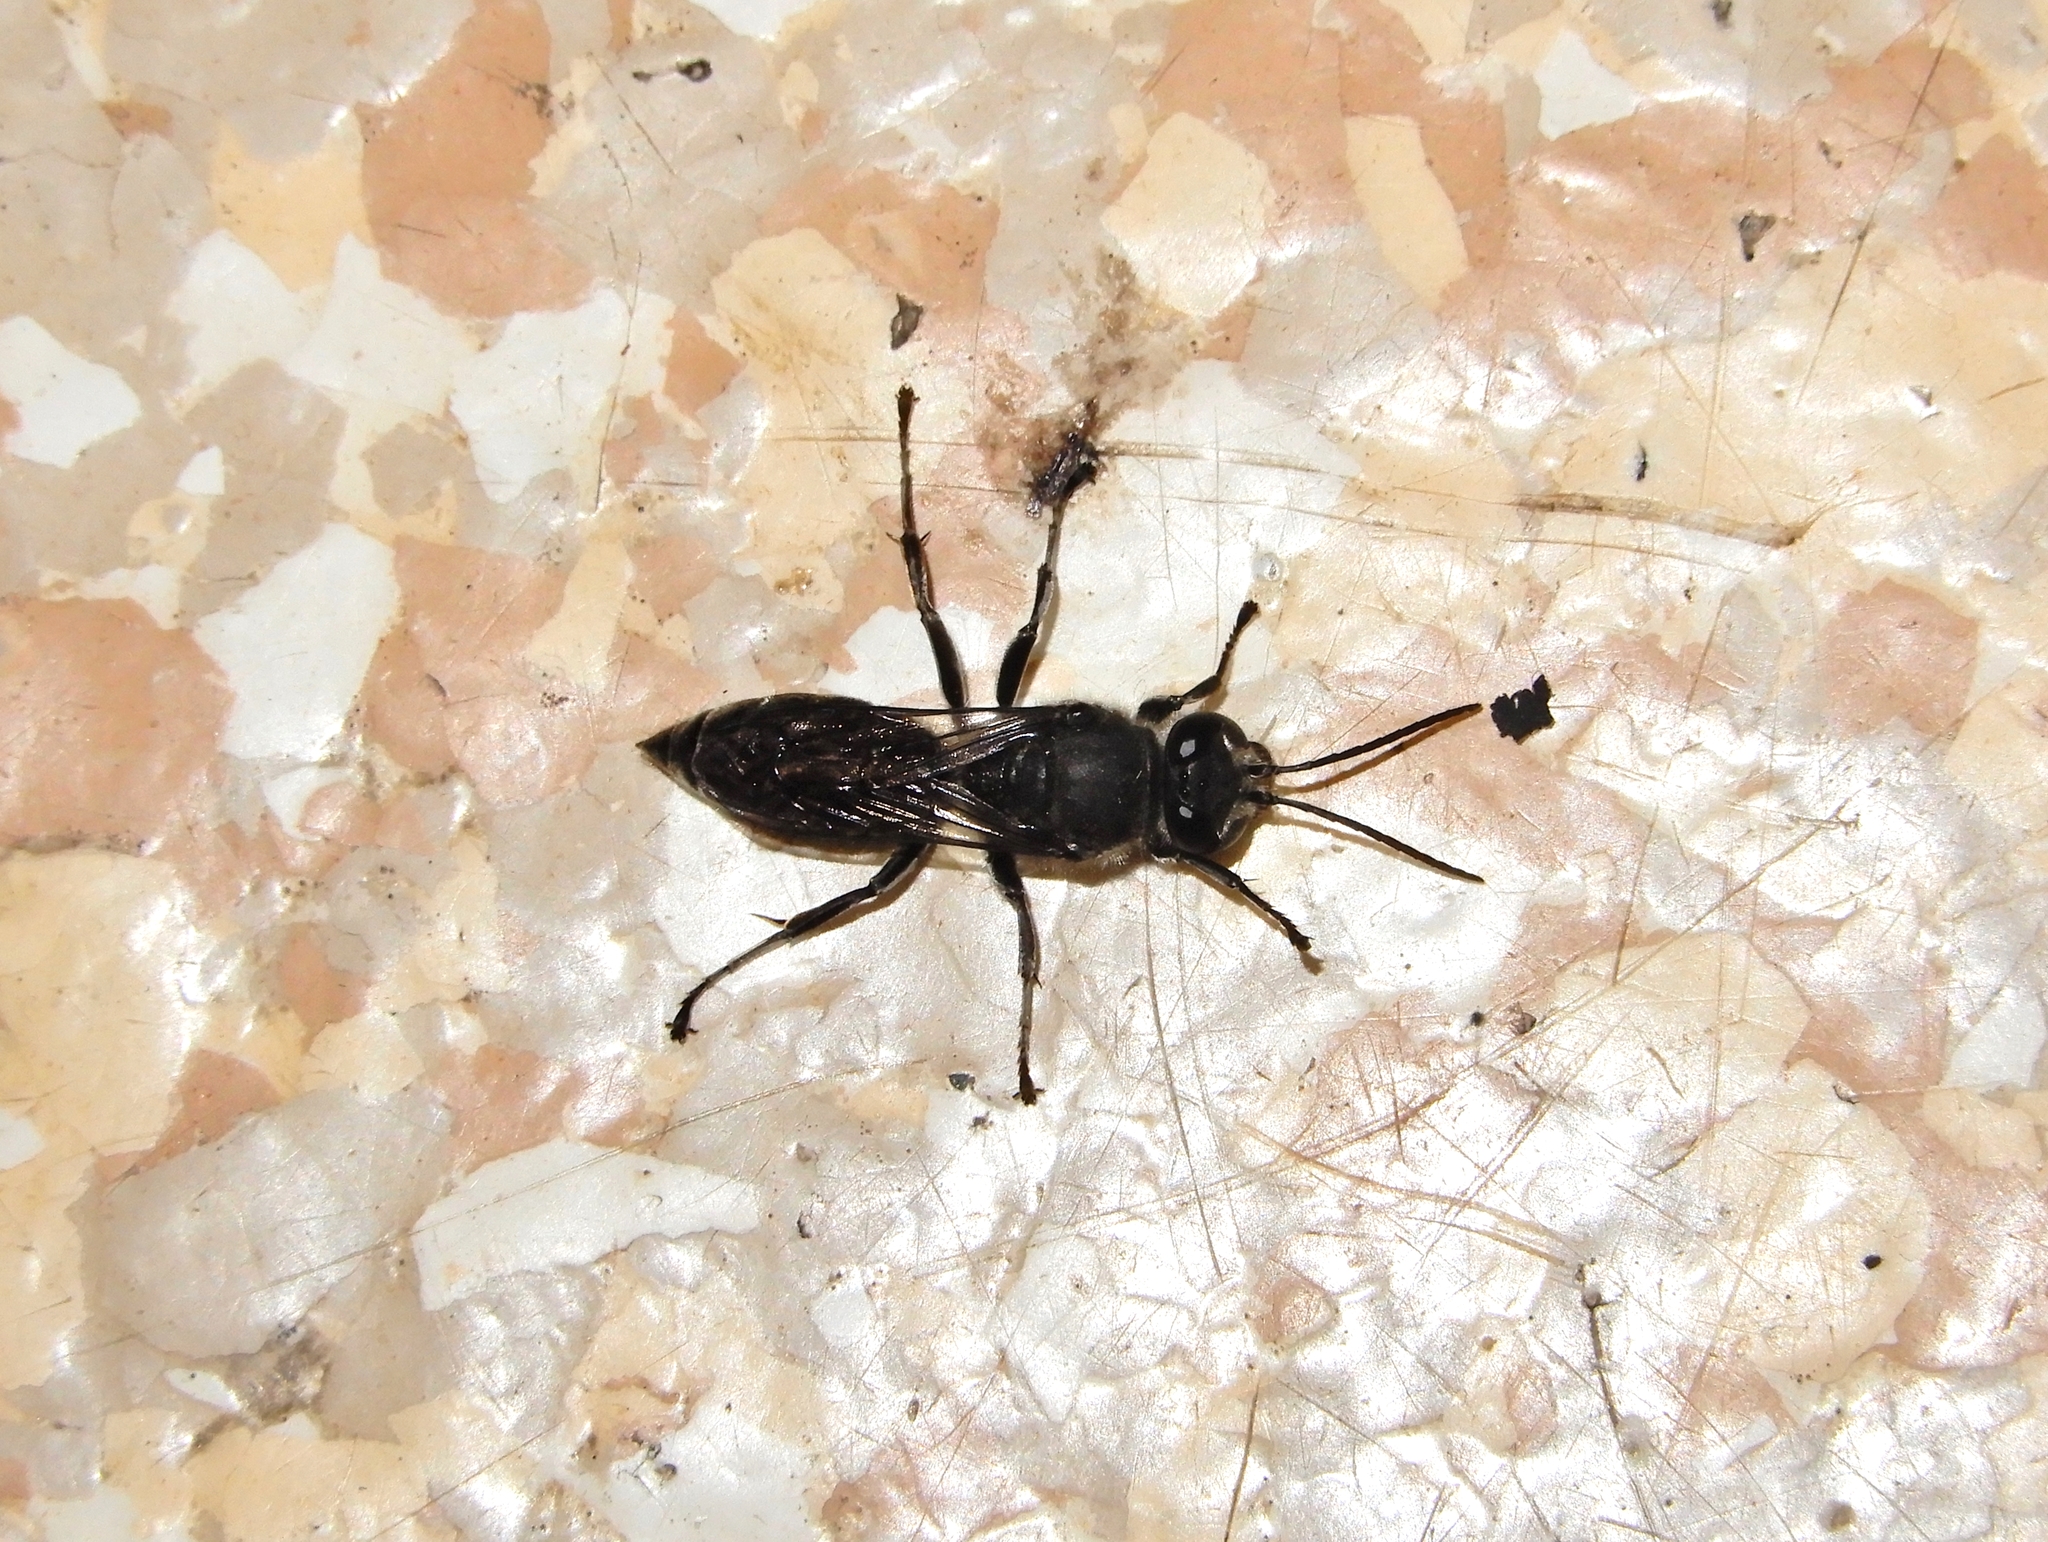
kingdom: Animalia
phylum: Arthropoda
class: Insecta
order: Hymenoptera
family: Crabronidae
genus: Pison
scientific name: Pison spinolae
